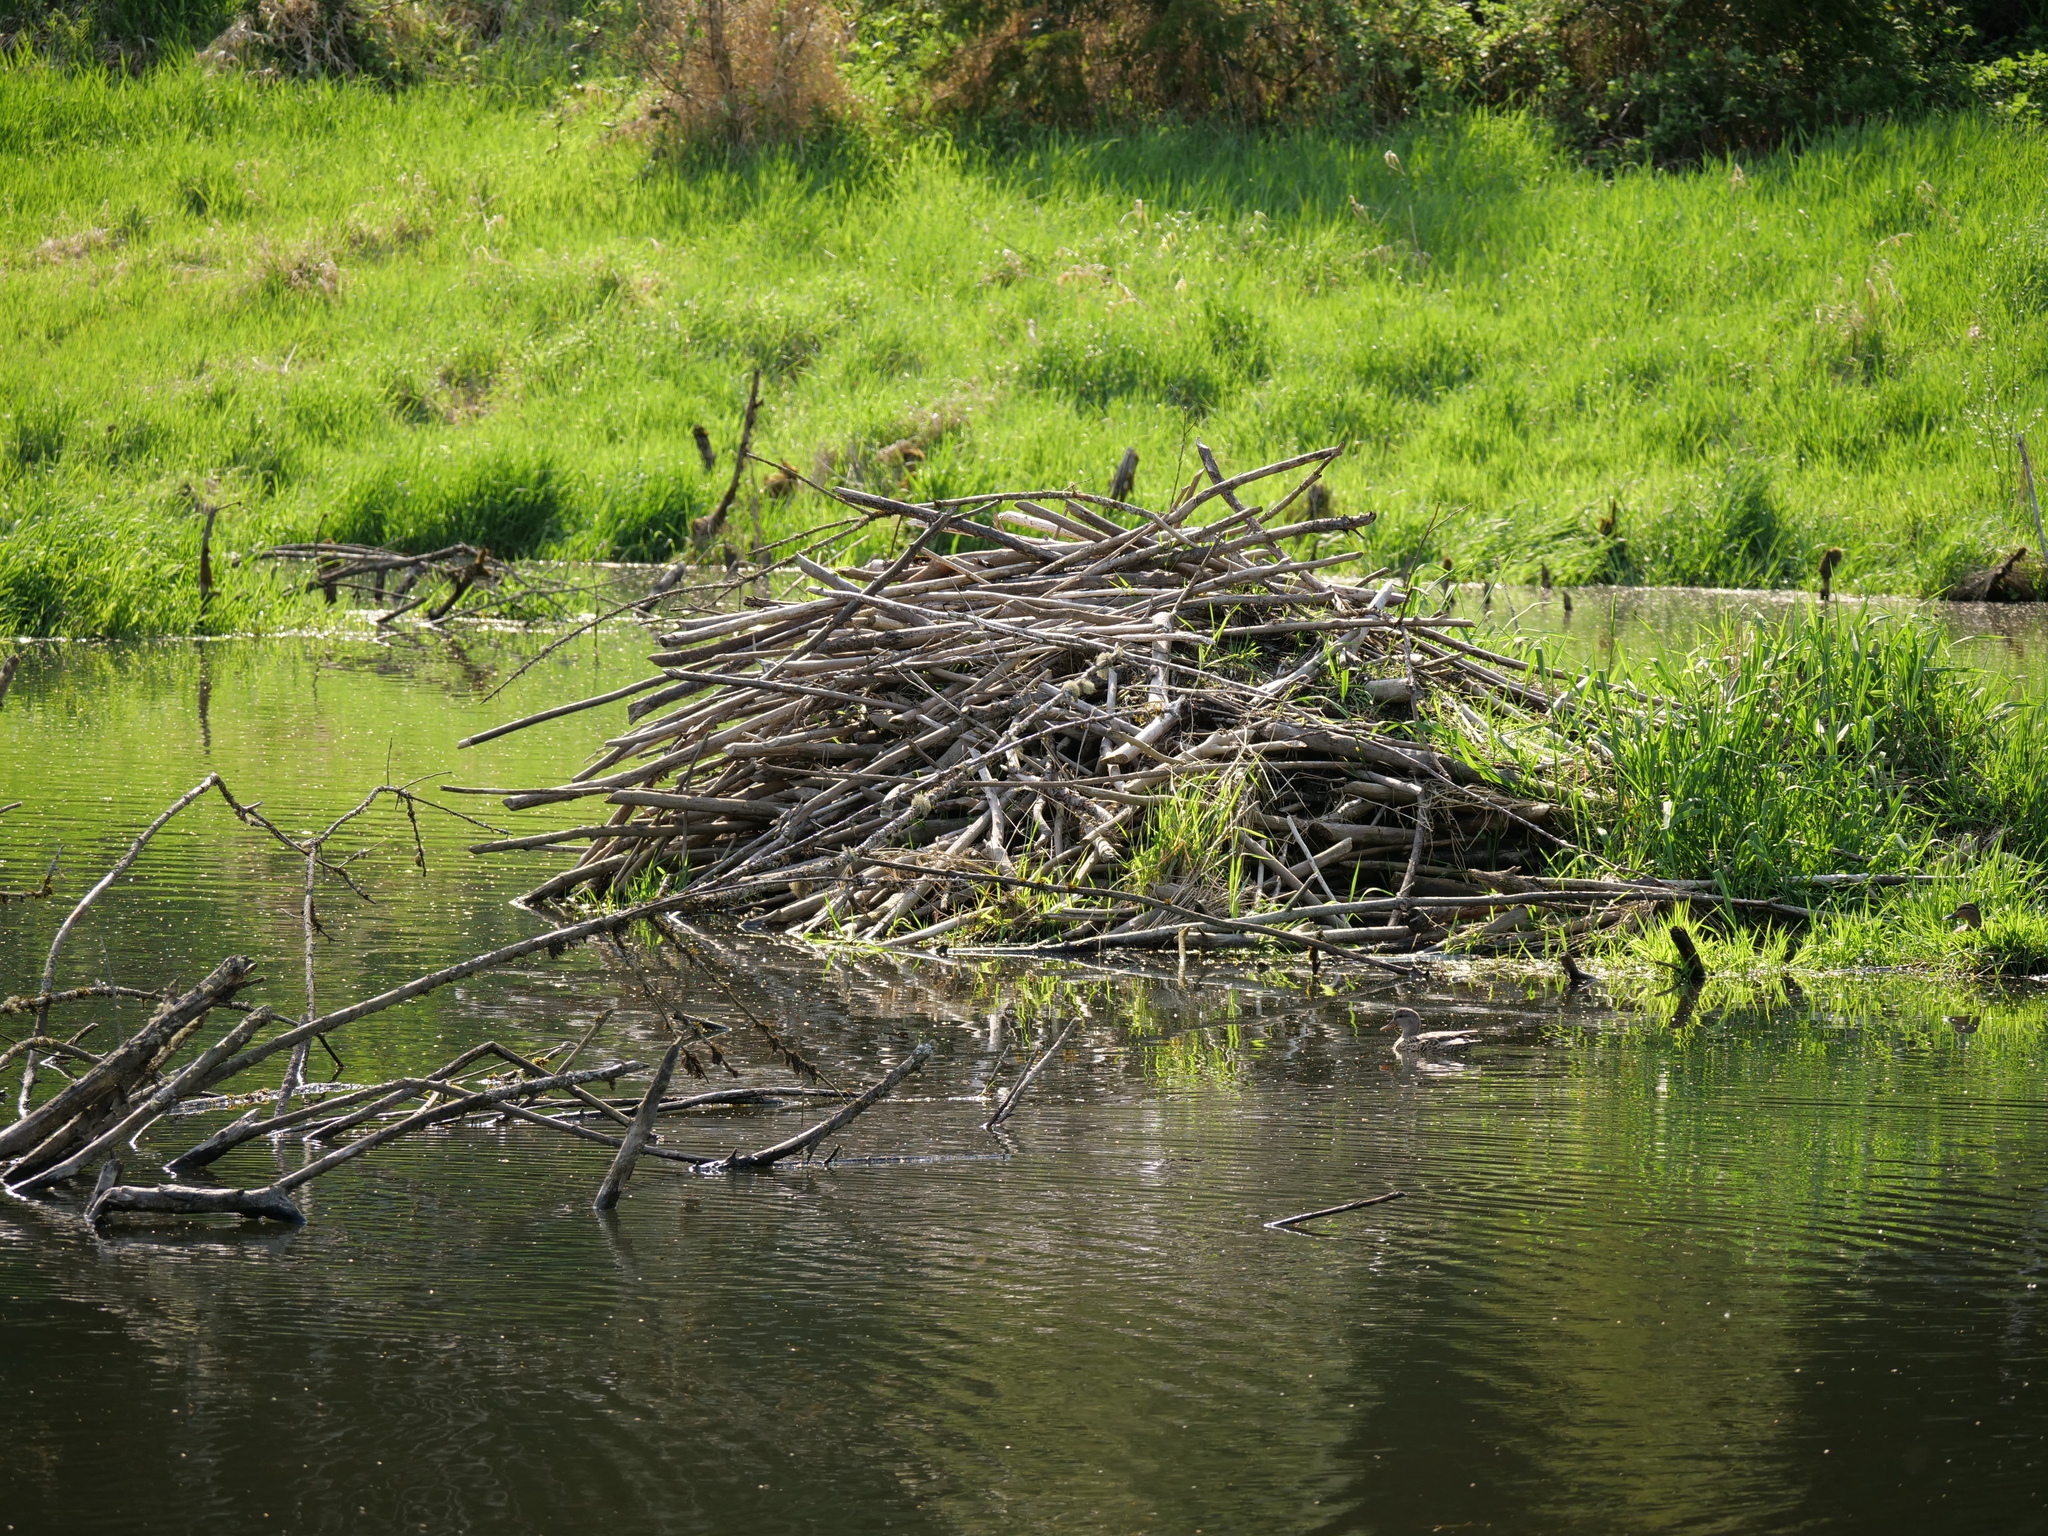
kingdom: Animalia
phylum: Chordata
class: Mammalia
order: Rodentia
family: Castoridae
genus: Castor
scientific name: Castor canadensis
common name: American beaver
